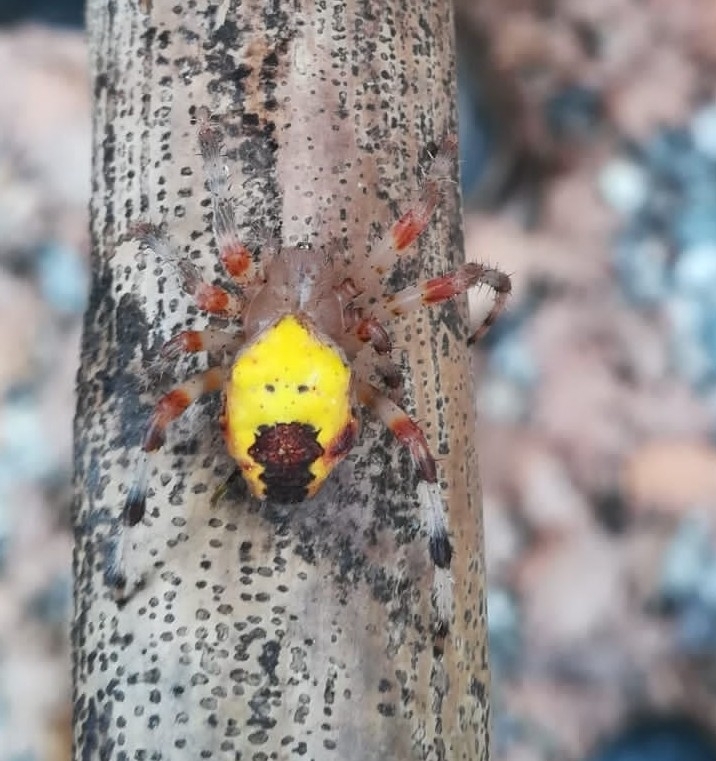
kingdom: Animalia
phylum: Arthropoda
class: Arachnida
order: Araneae
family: Araneidae
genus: Araneus
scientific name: Araneus marmoreus
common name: Marbled orbweaver
